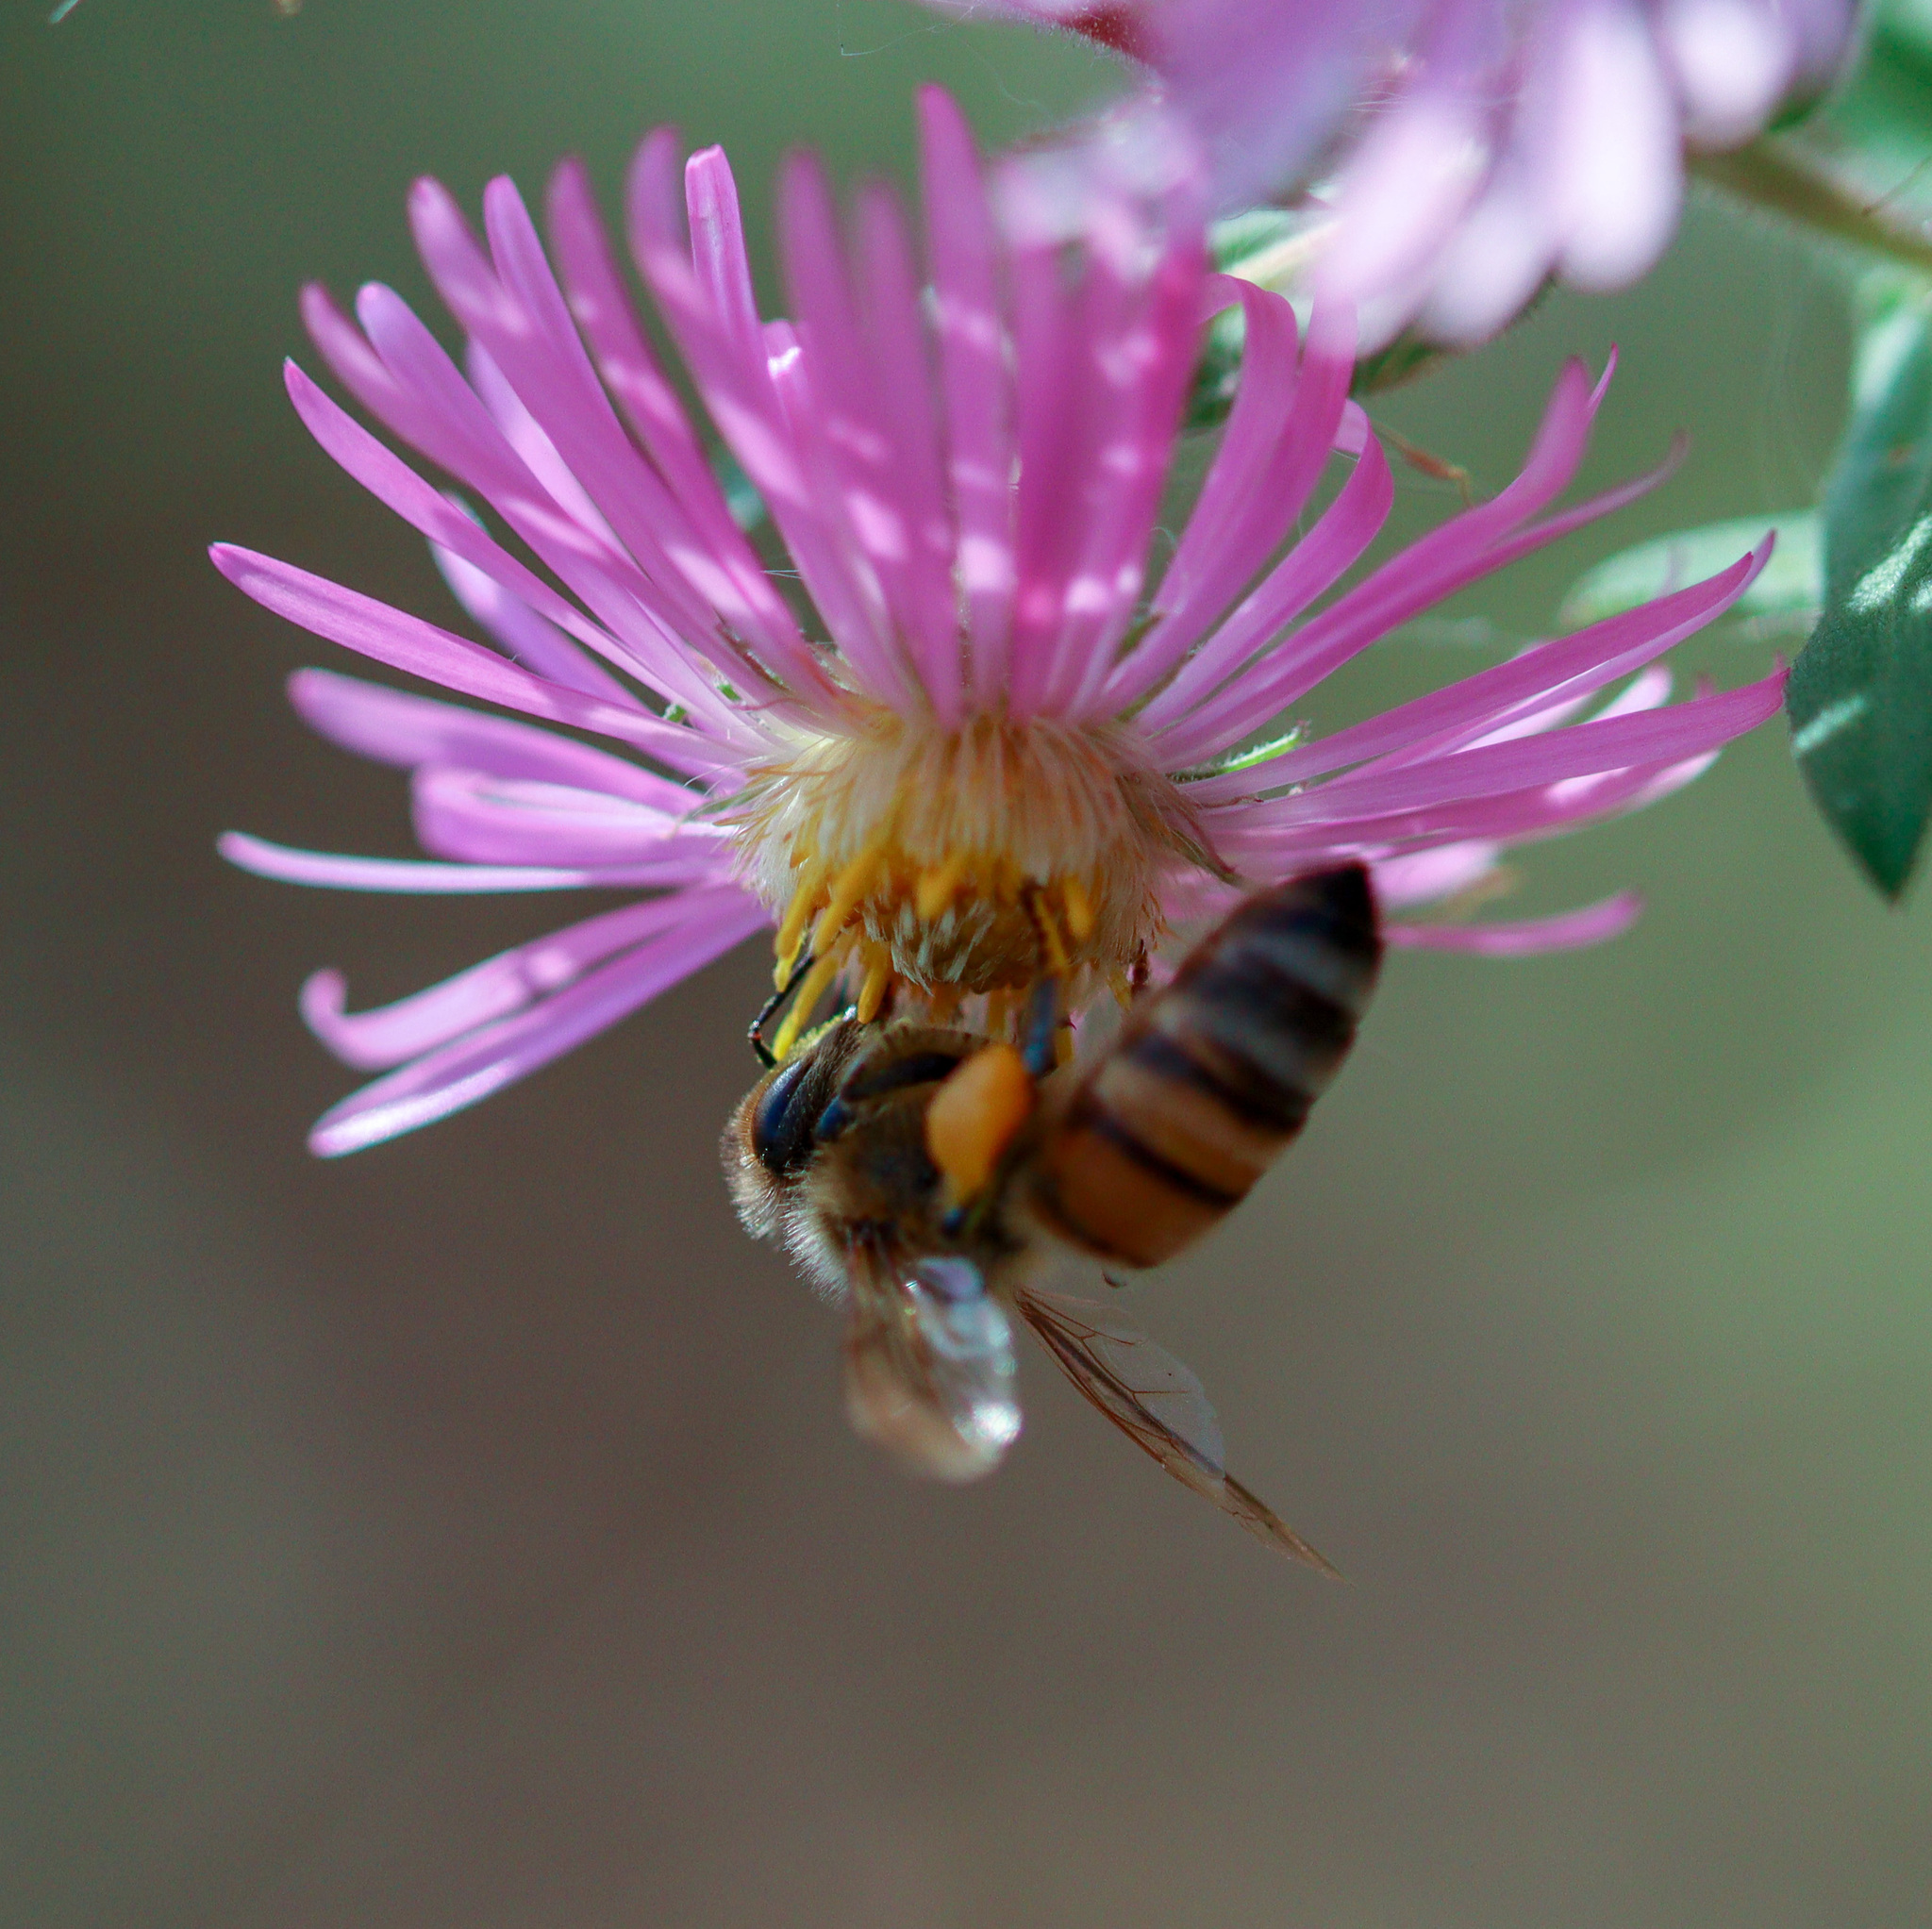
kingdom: Animalia
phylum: Arthropoda
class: Insecta
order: Hymenoptera
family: Apidae
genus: Apis
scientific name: Apis mellifera
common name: Honey bee
